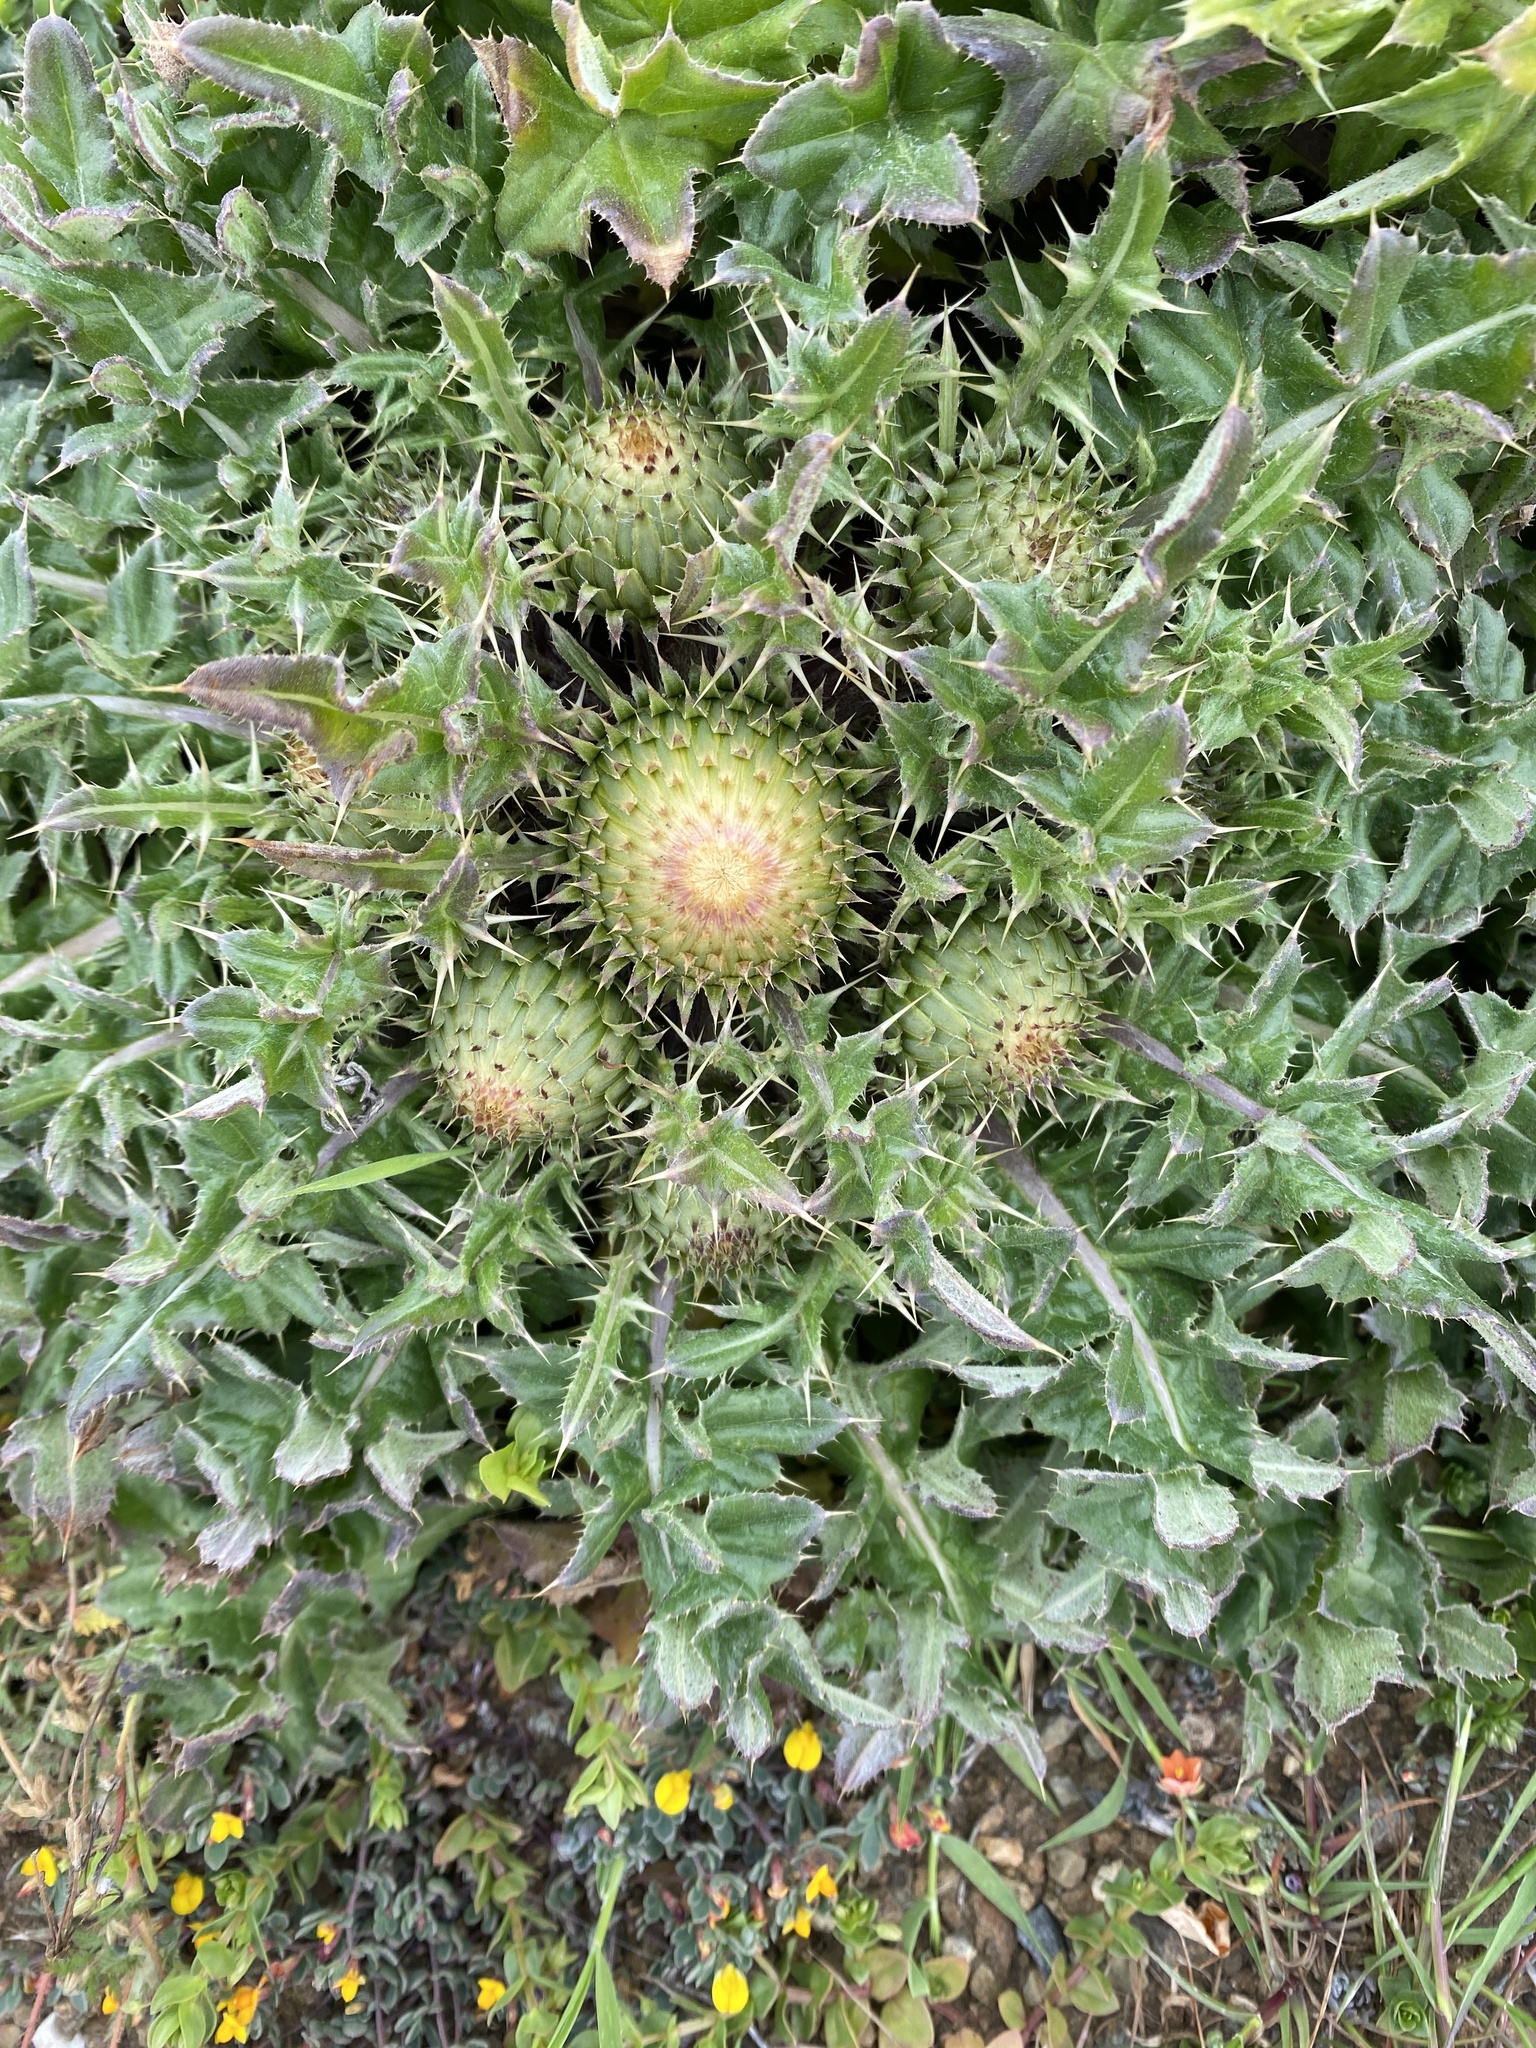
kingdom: Plantae
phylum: Tracheophyta
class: Magnoliopsida
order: Asterales
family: Asteraceae
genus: Cirsium
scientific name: Cirsium quercetorum
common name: Alameda county thistle
